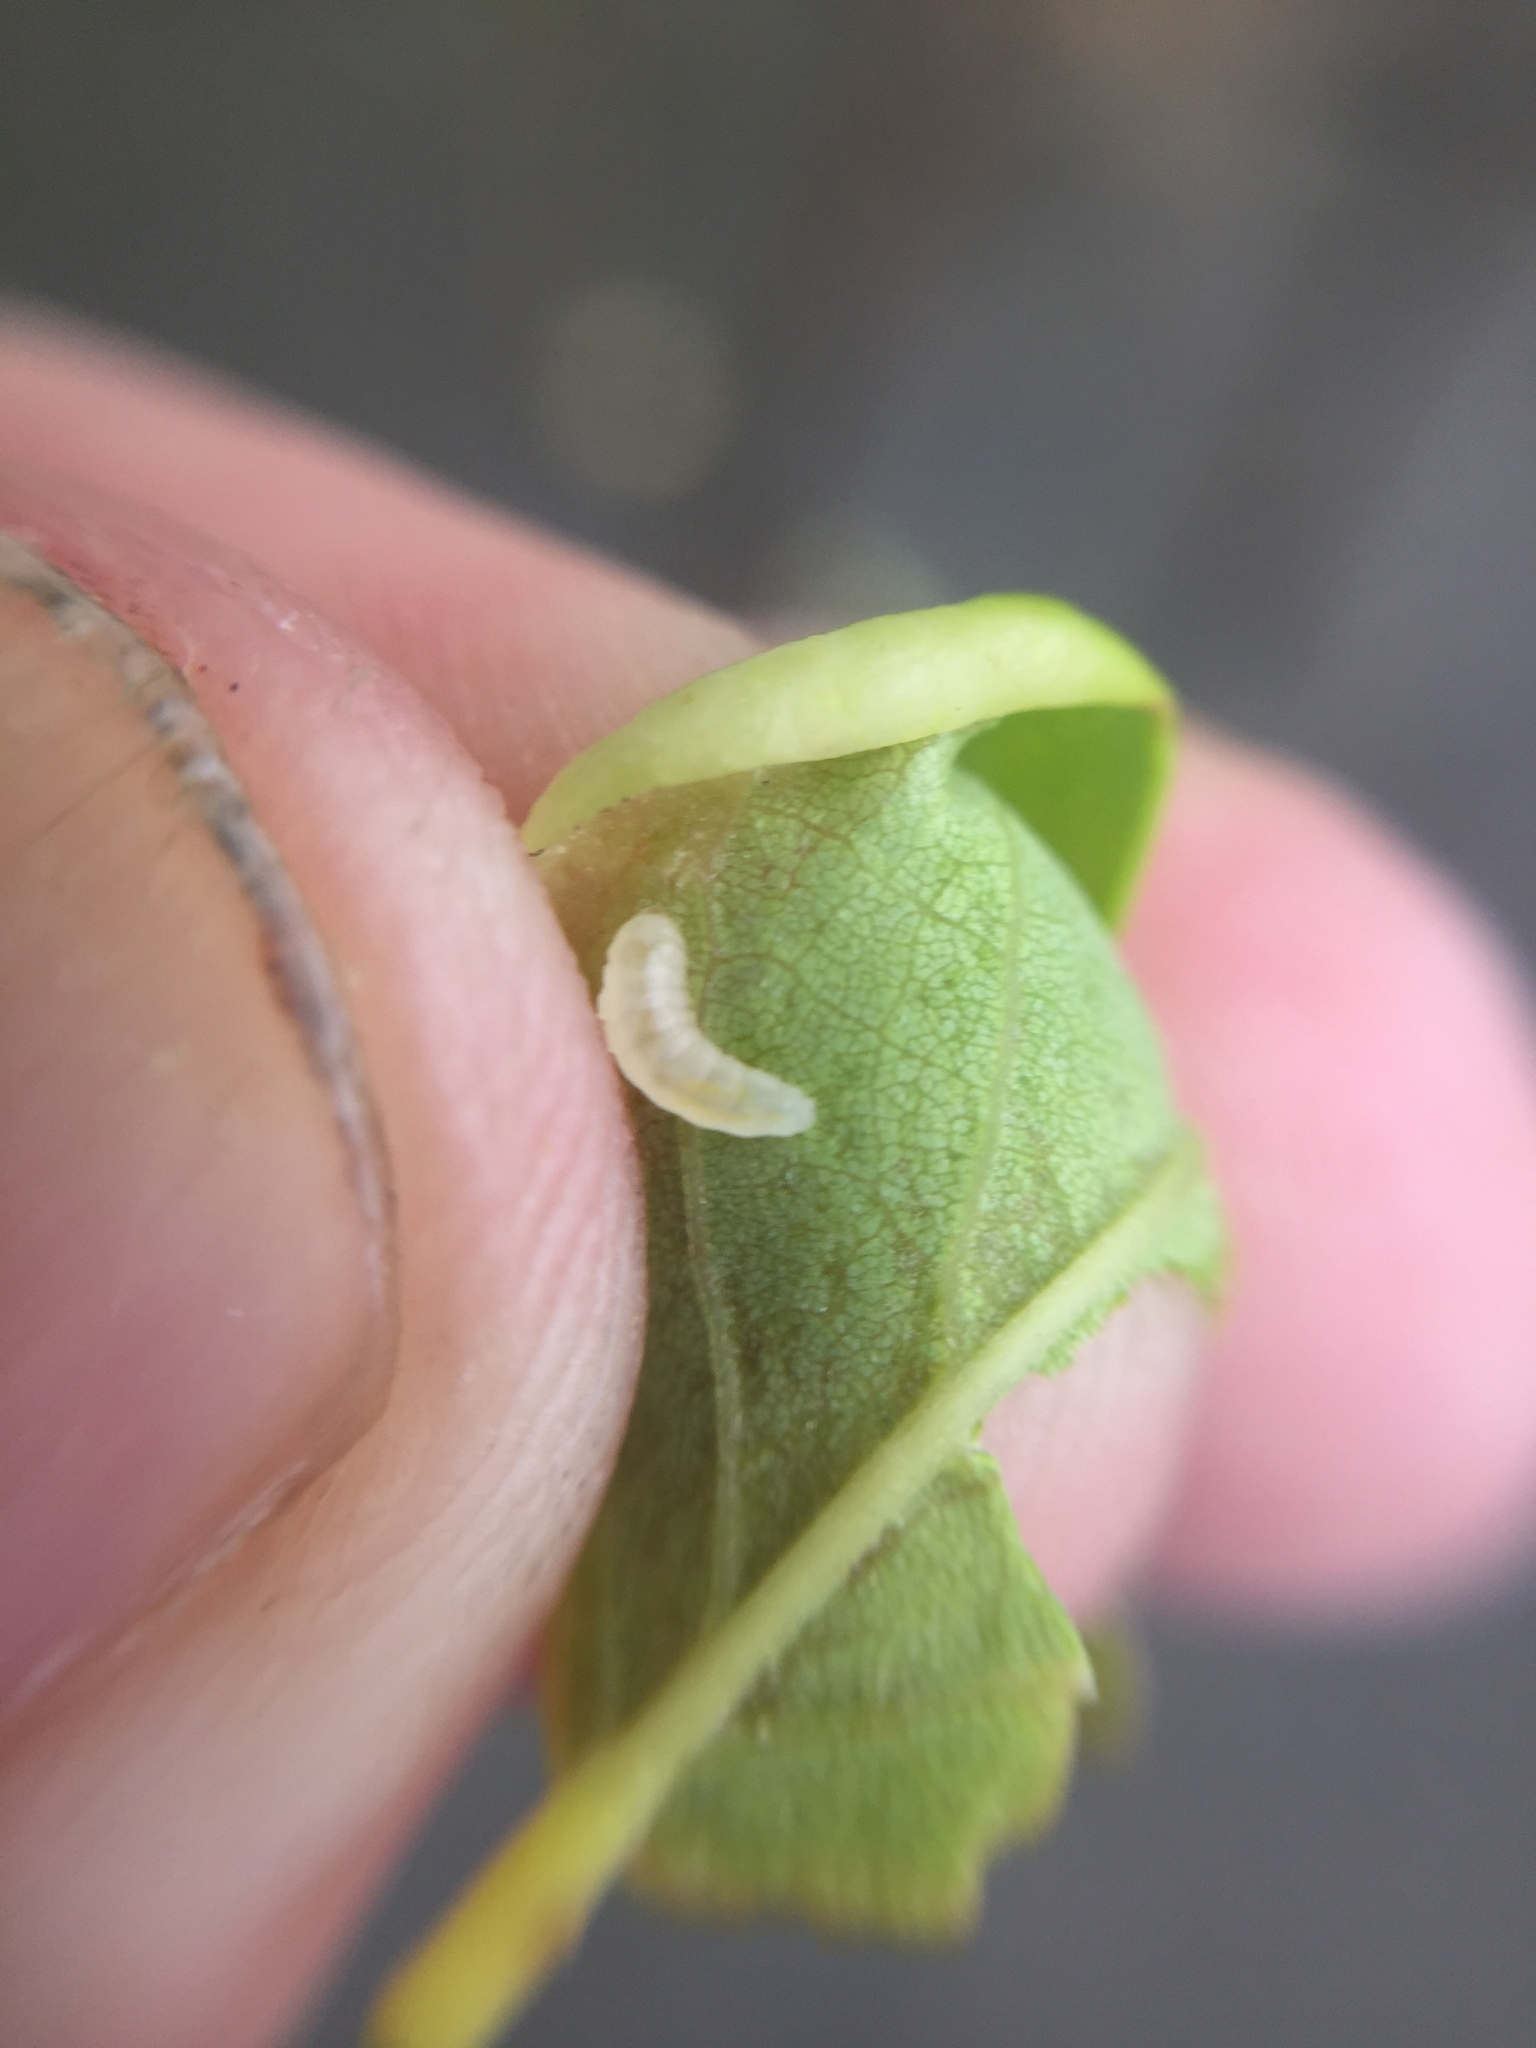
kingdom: Animalia
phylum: Arthropoda
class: Insecta
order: Diptera
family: Cecidomyiidae
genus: Obolodiplosis
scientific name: Obolodiplosis robiniae
